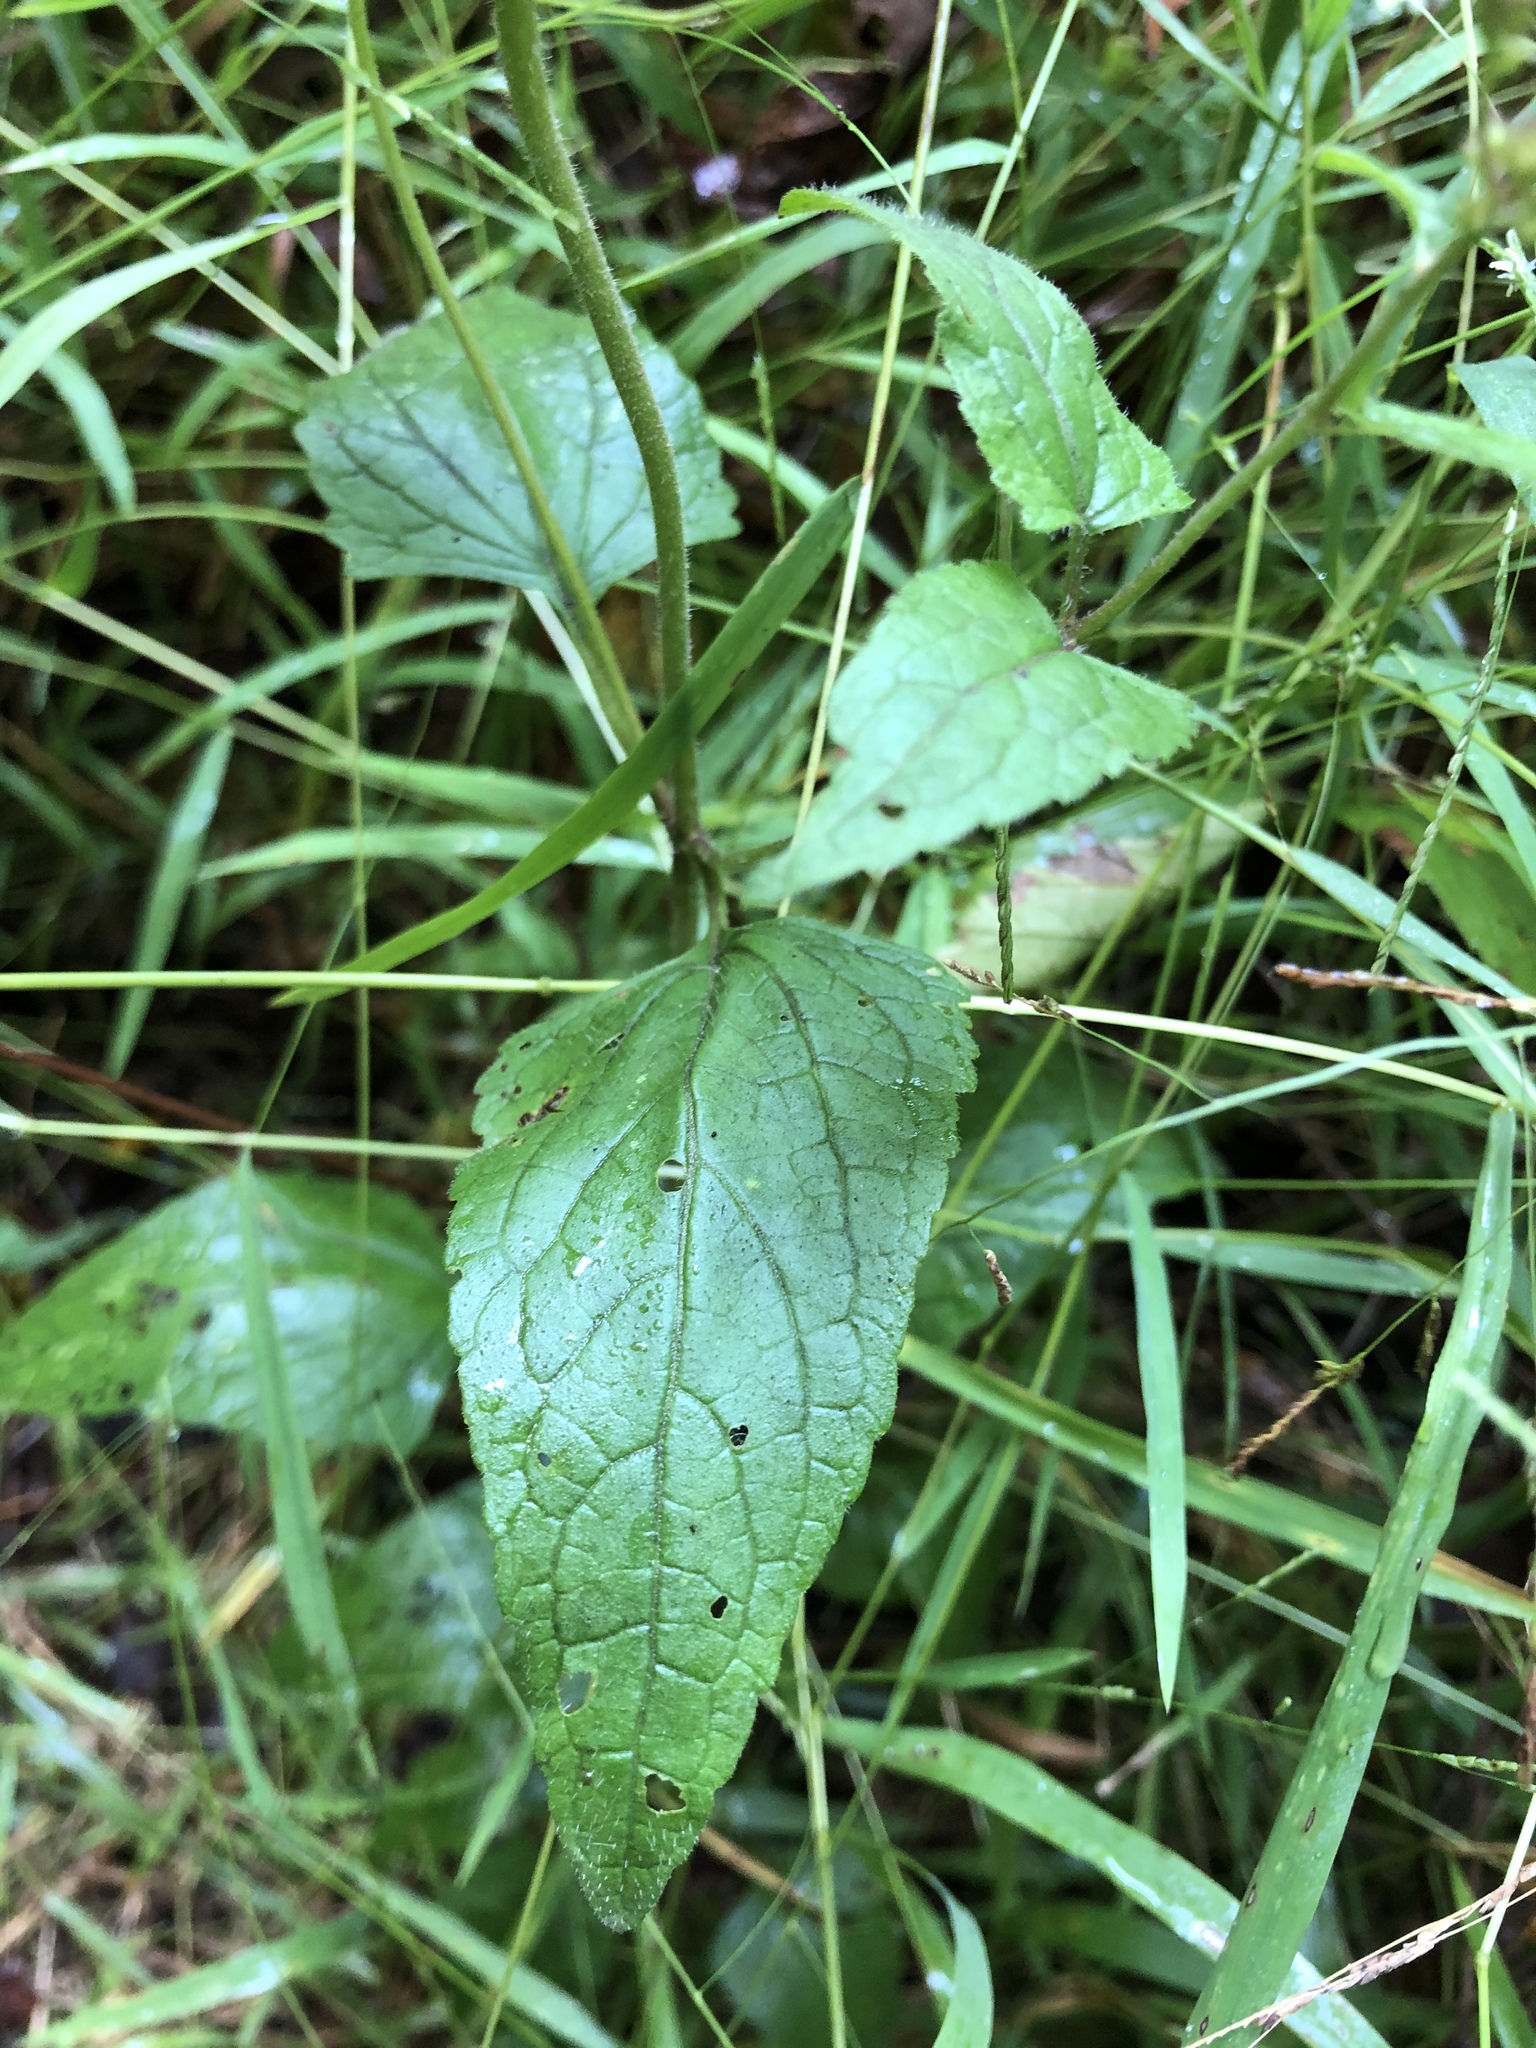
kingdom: Plantae
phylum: Tracheophyta
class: Magnoliopsida
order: Asterales
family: Asteraceae
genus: Conoclinium
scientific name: Conoclinium coelestinum
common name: Blue mistflower
